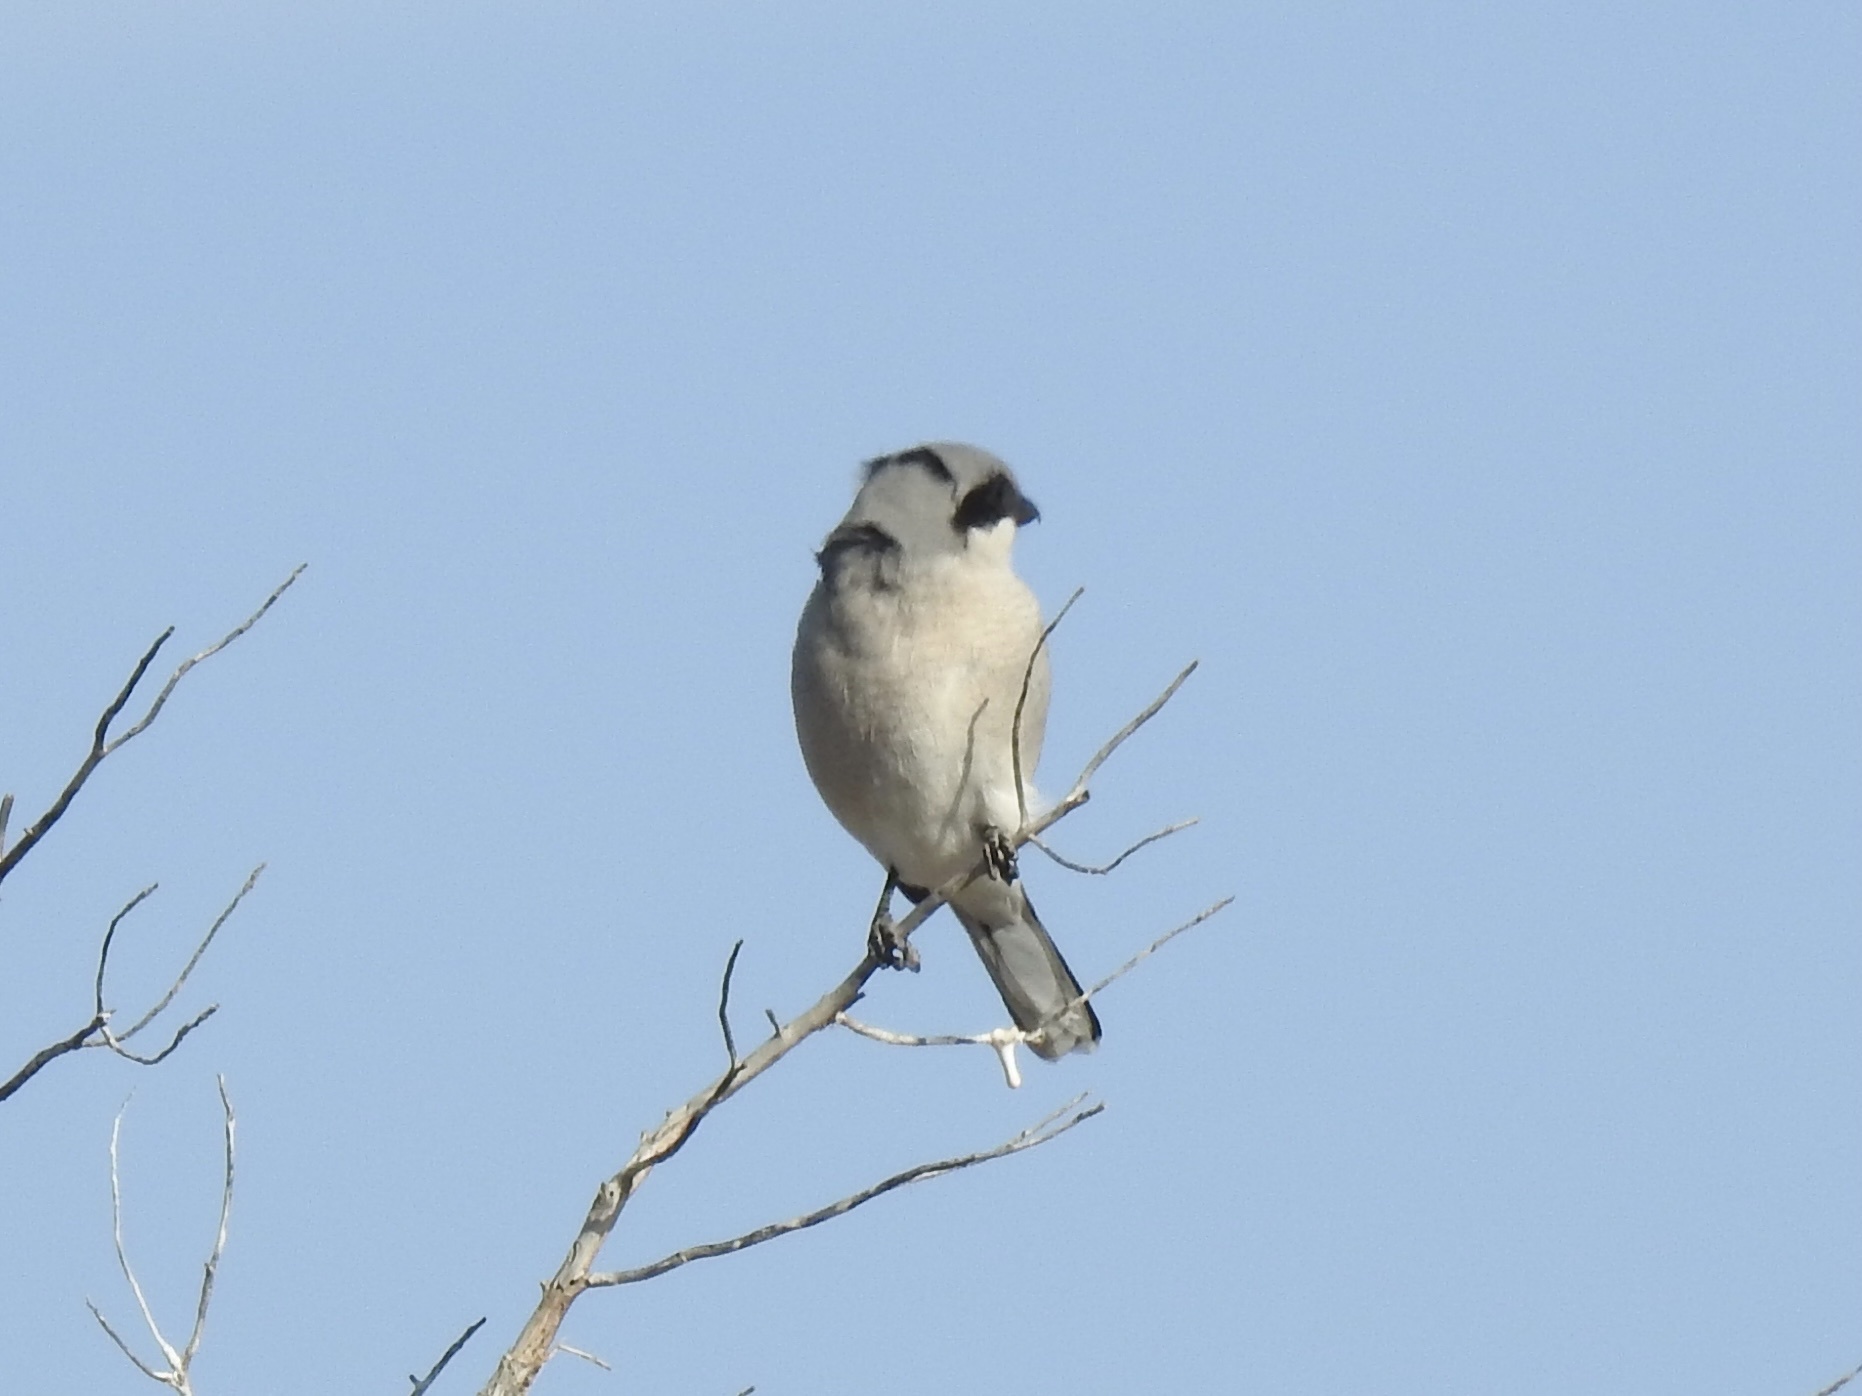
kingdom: Animalia
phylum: Chordata
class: Aves
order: Passeriformes
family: Laniidae
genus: Lanius
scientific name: Lanius ludovicianus
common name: Loggerhead shrike
